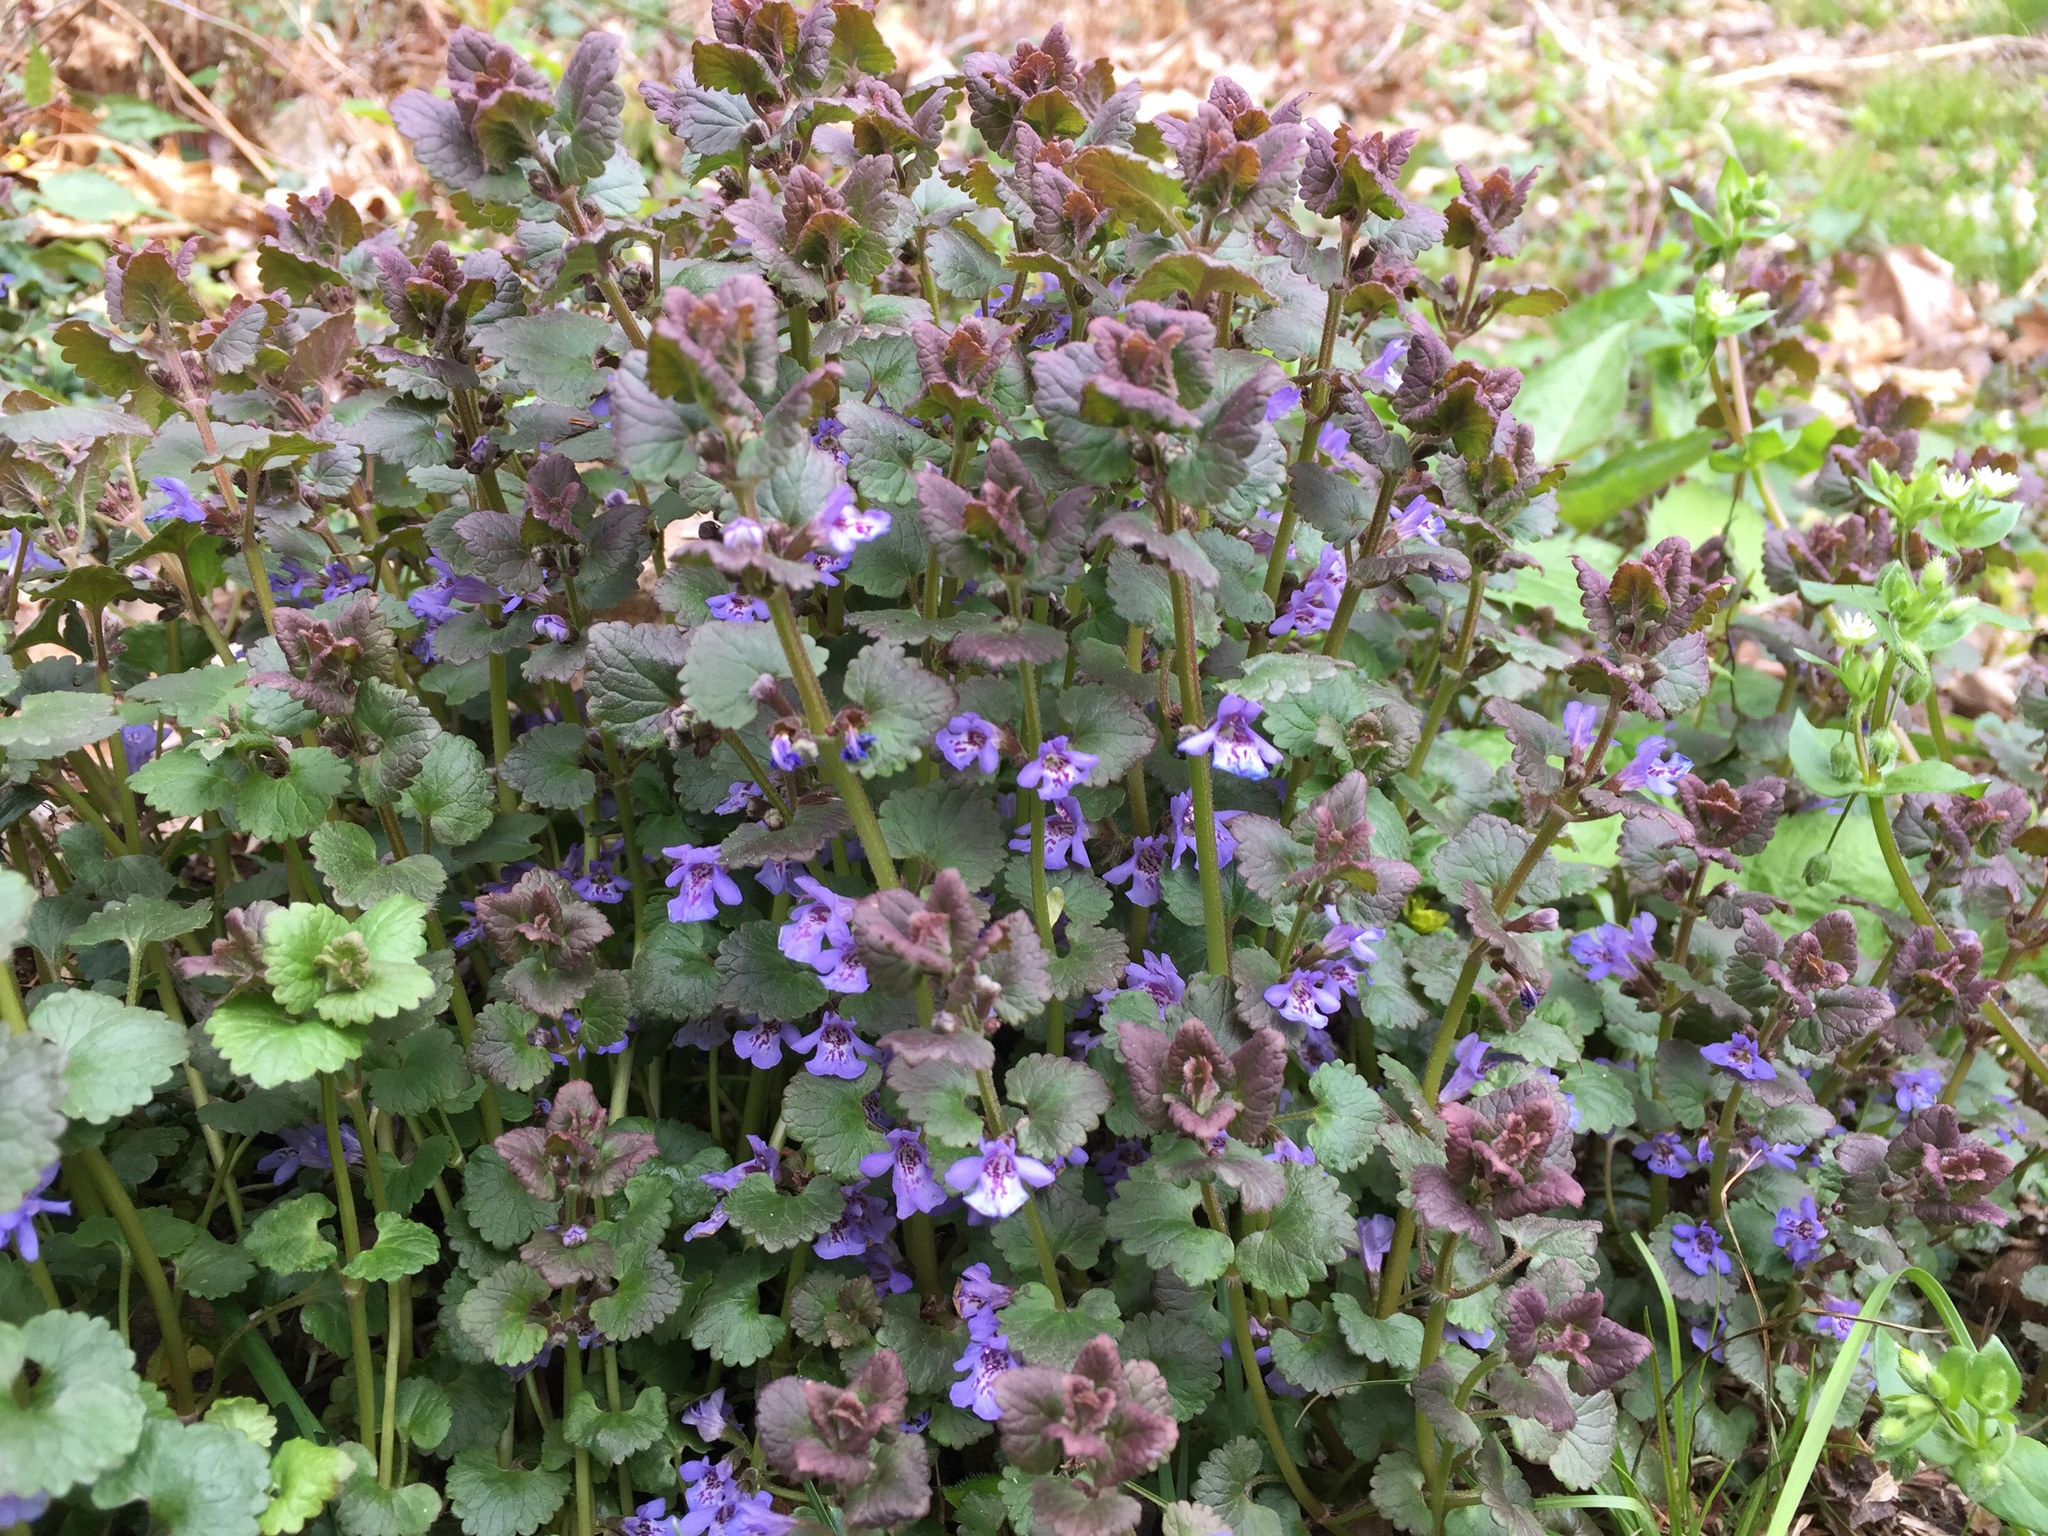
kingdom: Plantae
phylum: Tracheophyta
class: Magnoliopsida
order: Lamiales
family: Lamiaceae
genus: Glechoma
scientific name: Glechoma hederacea
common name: Ground ivy
